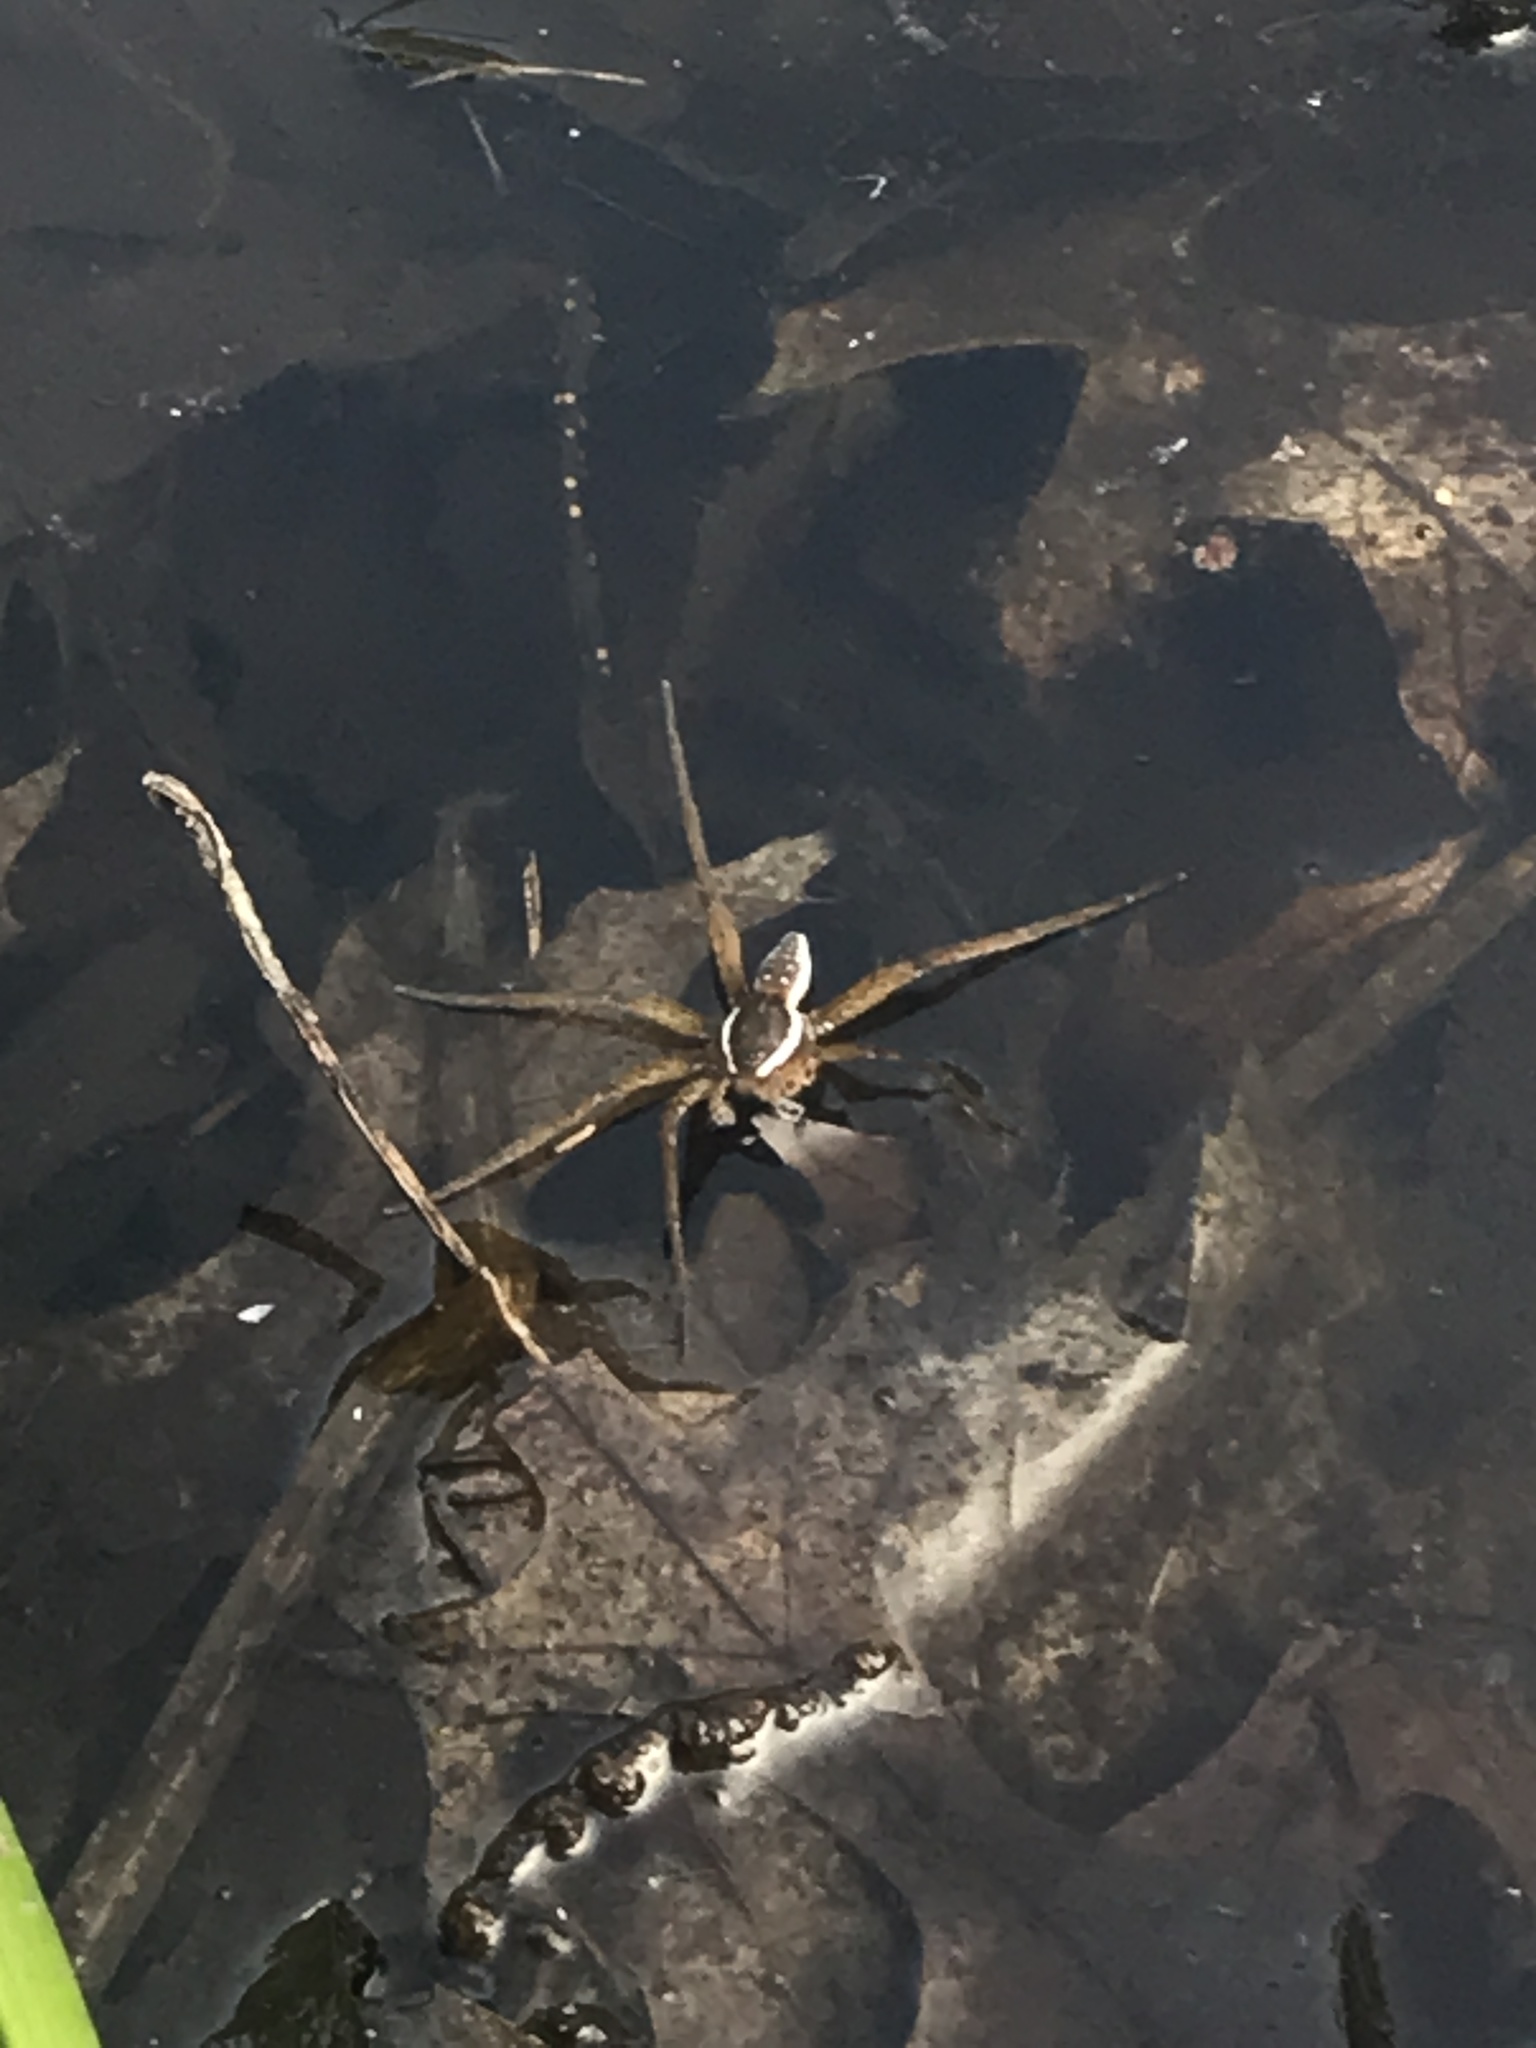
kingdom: Animalia
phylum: Arthropoda
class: Arachnida
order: Araneae
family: Pisauridae
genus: Dolomedes
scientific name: Dolomedes triton
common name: Six-spotted fishing spider
